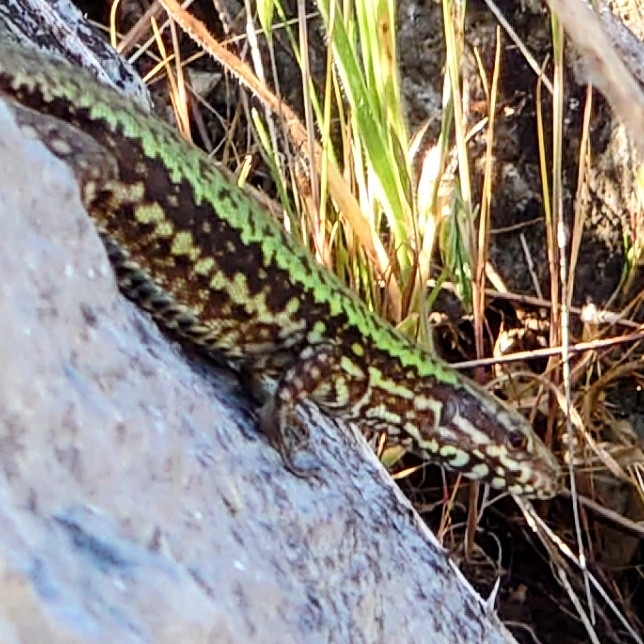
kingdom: Animalia
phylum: Chordata
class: Squamata
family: Lacertidae
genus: Podarcis
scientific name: Podarcis muralis
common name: Common wall lizard
